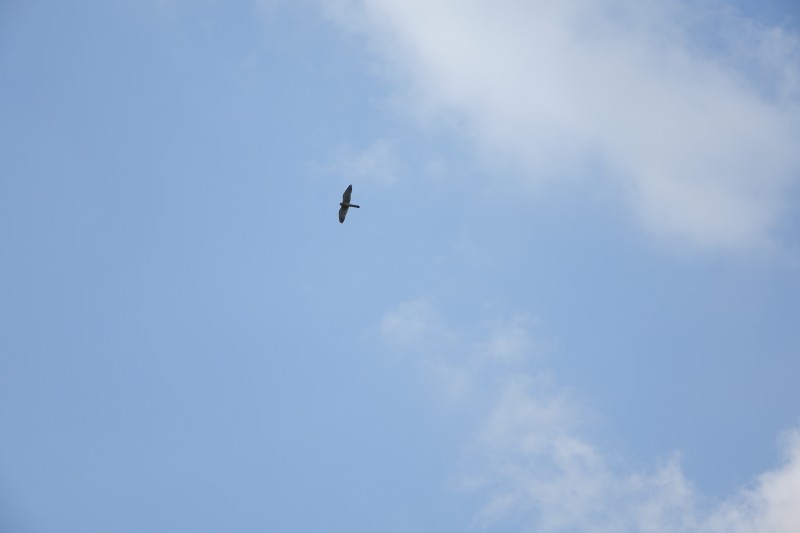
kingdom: Animalia
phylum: Chordata
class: Aves
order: Falconiformes
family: Falconidae
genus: Falco
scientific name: Falco tinnunculus
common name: Common kestrel
